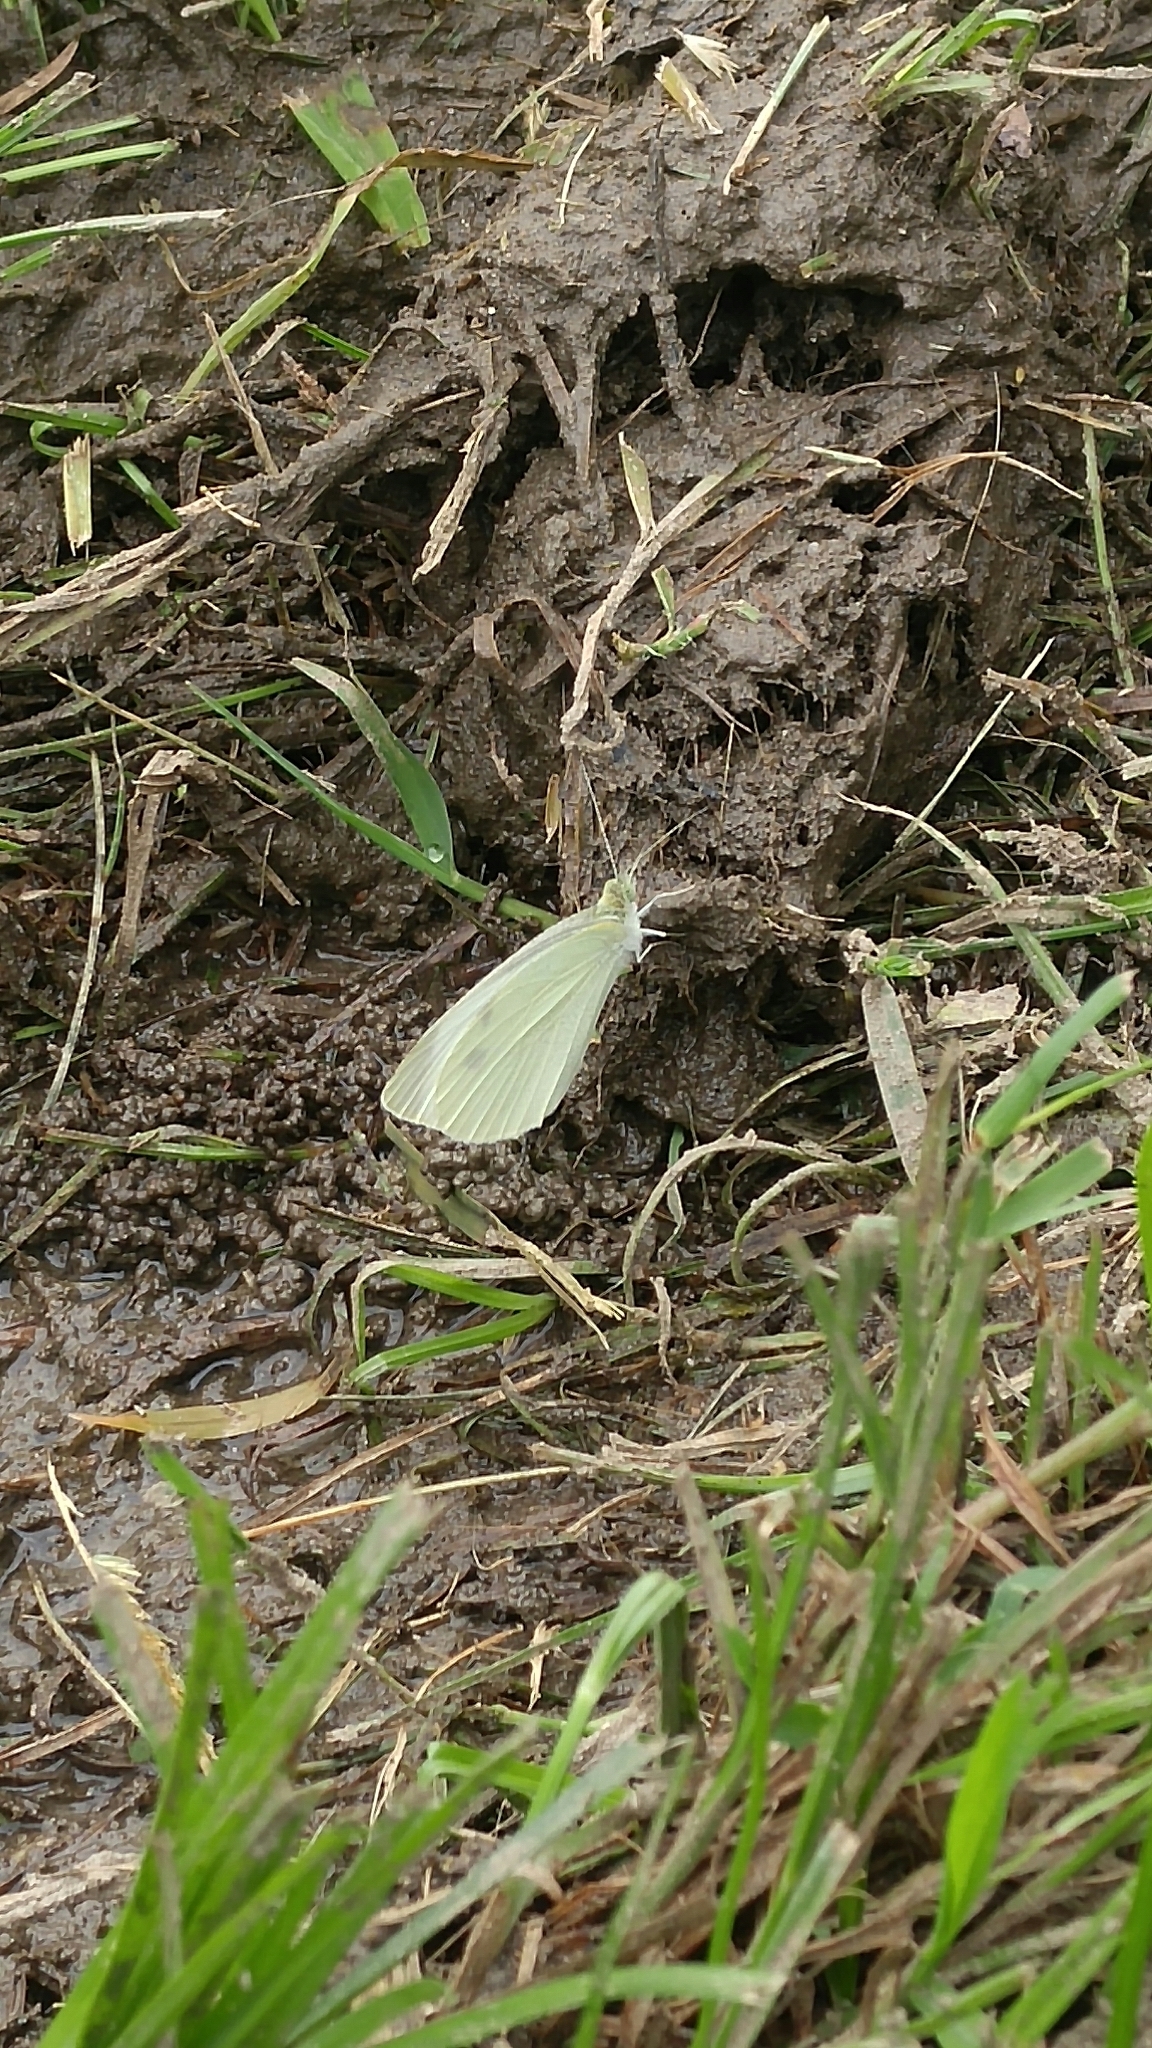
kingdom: Animalia
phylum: Arthropoda
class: Insecta
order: Lepidoptera
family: Pieridae
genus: Pieris
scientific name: Pieris rapae
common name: Small white
